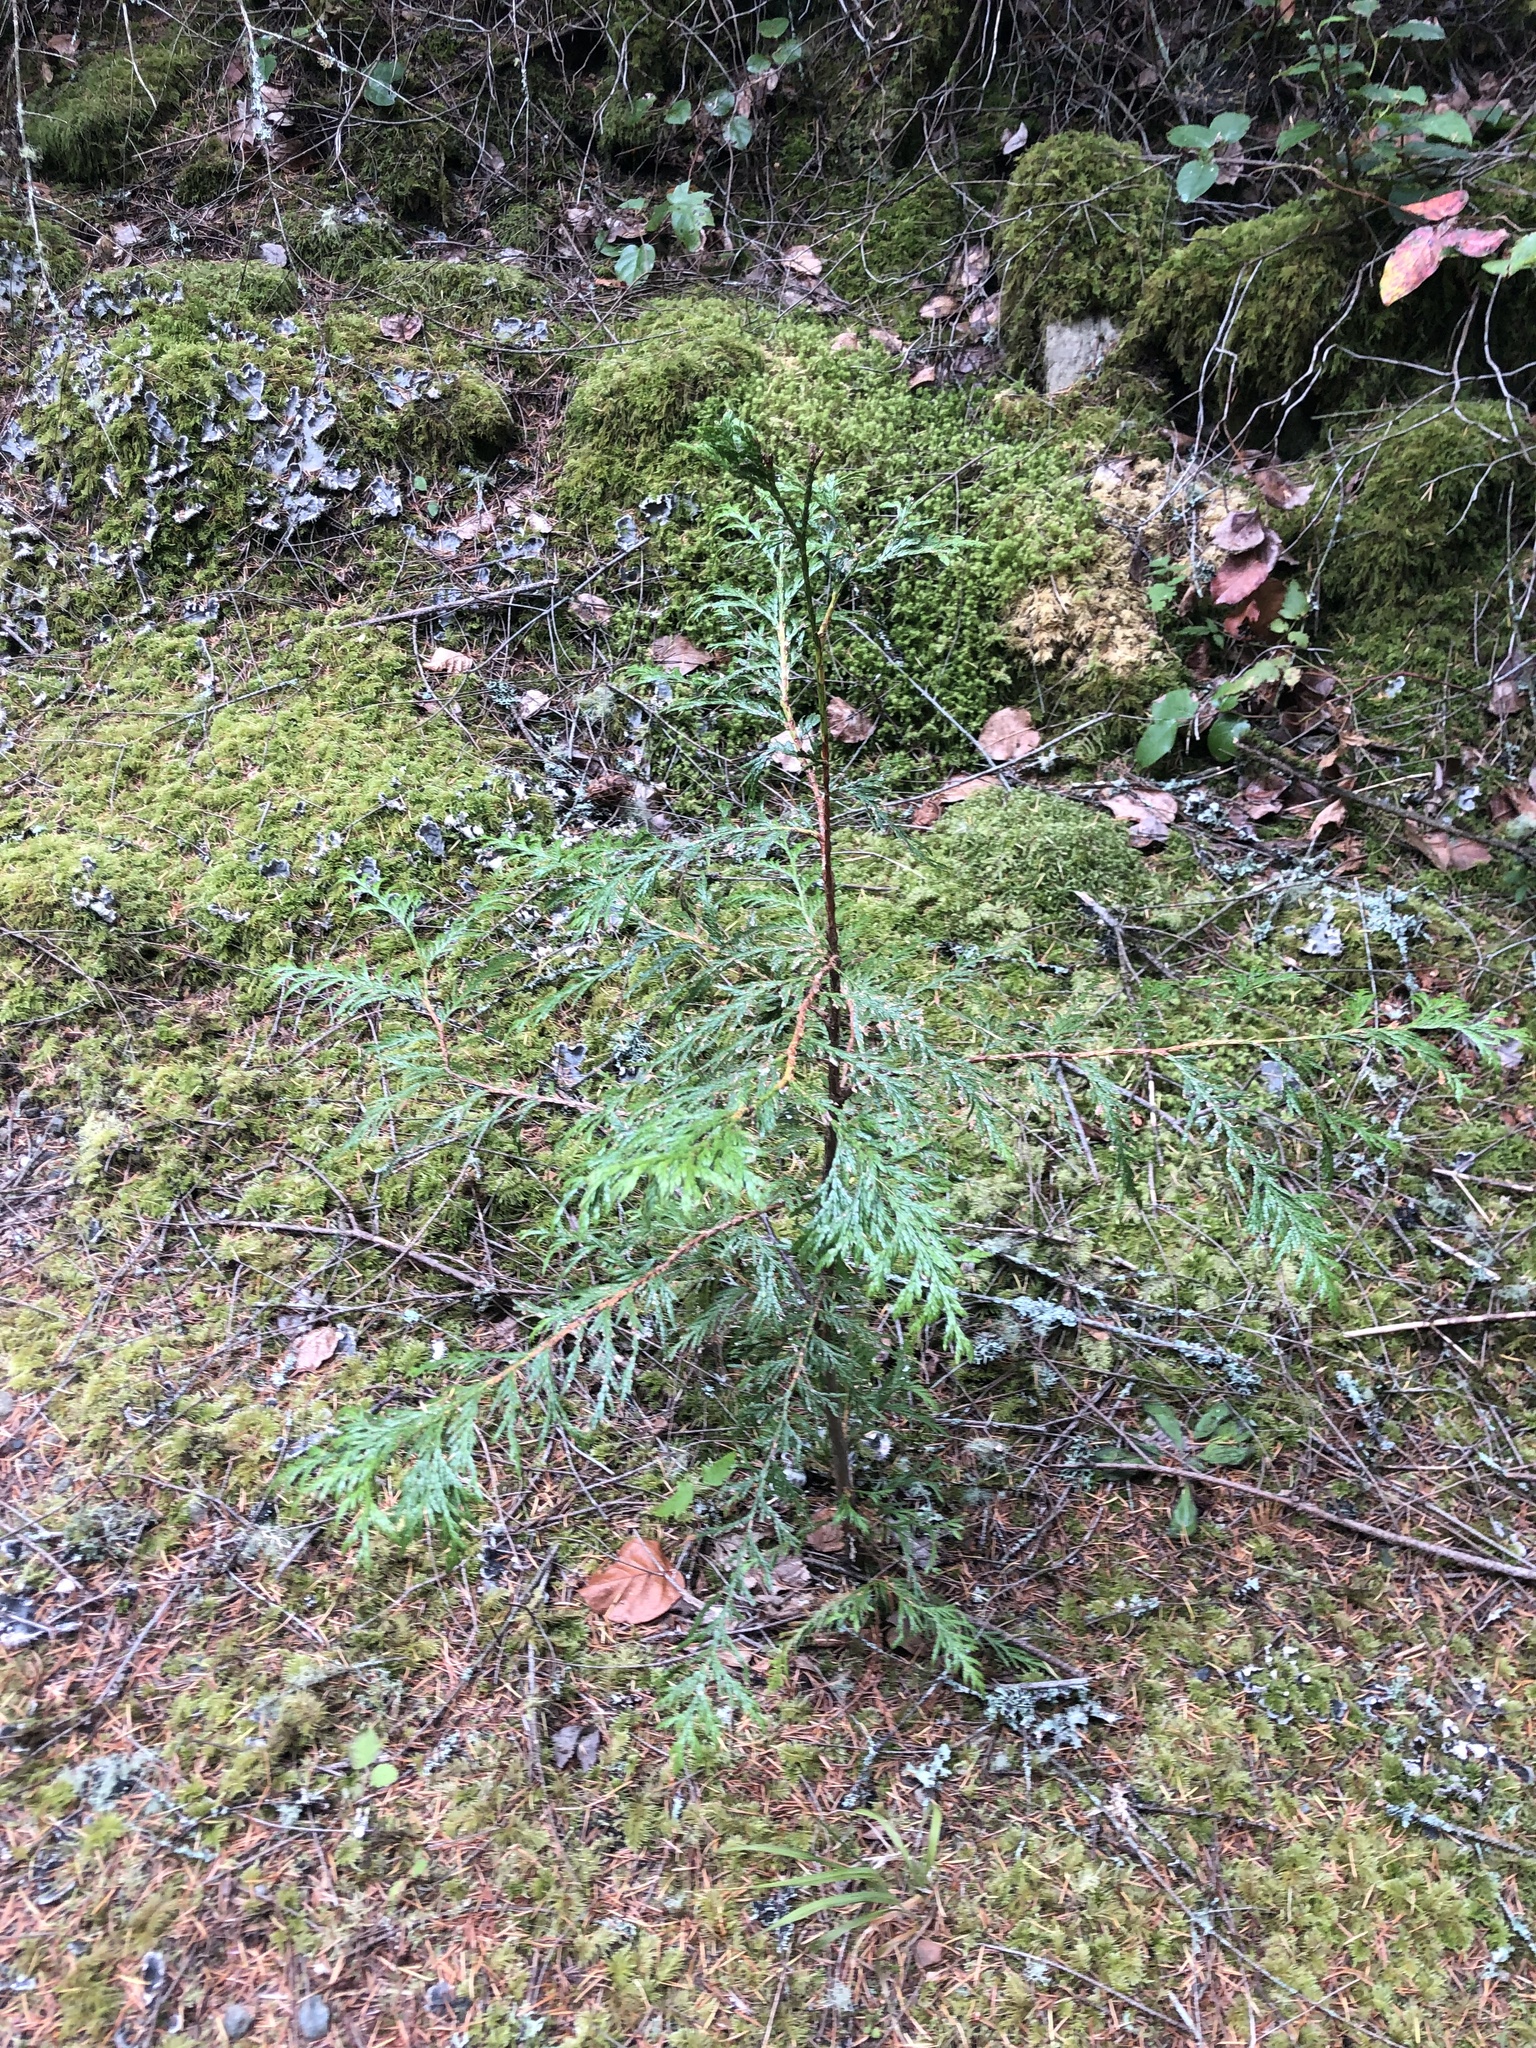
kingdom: Plantae
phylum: Tracheophyta
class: Pinopsida
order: Pinales
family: Cupressaceae
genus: Thuja
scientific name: Thuja plicata
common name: Western red-cedar
